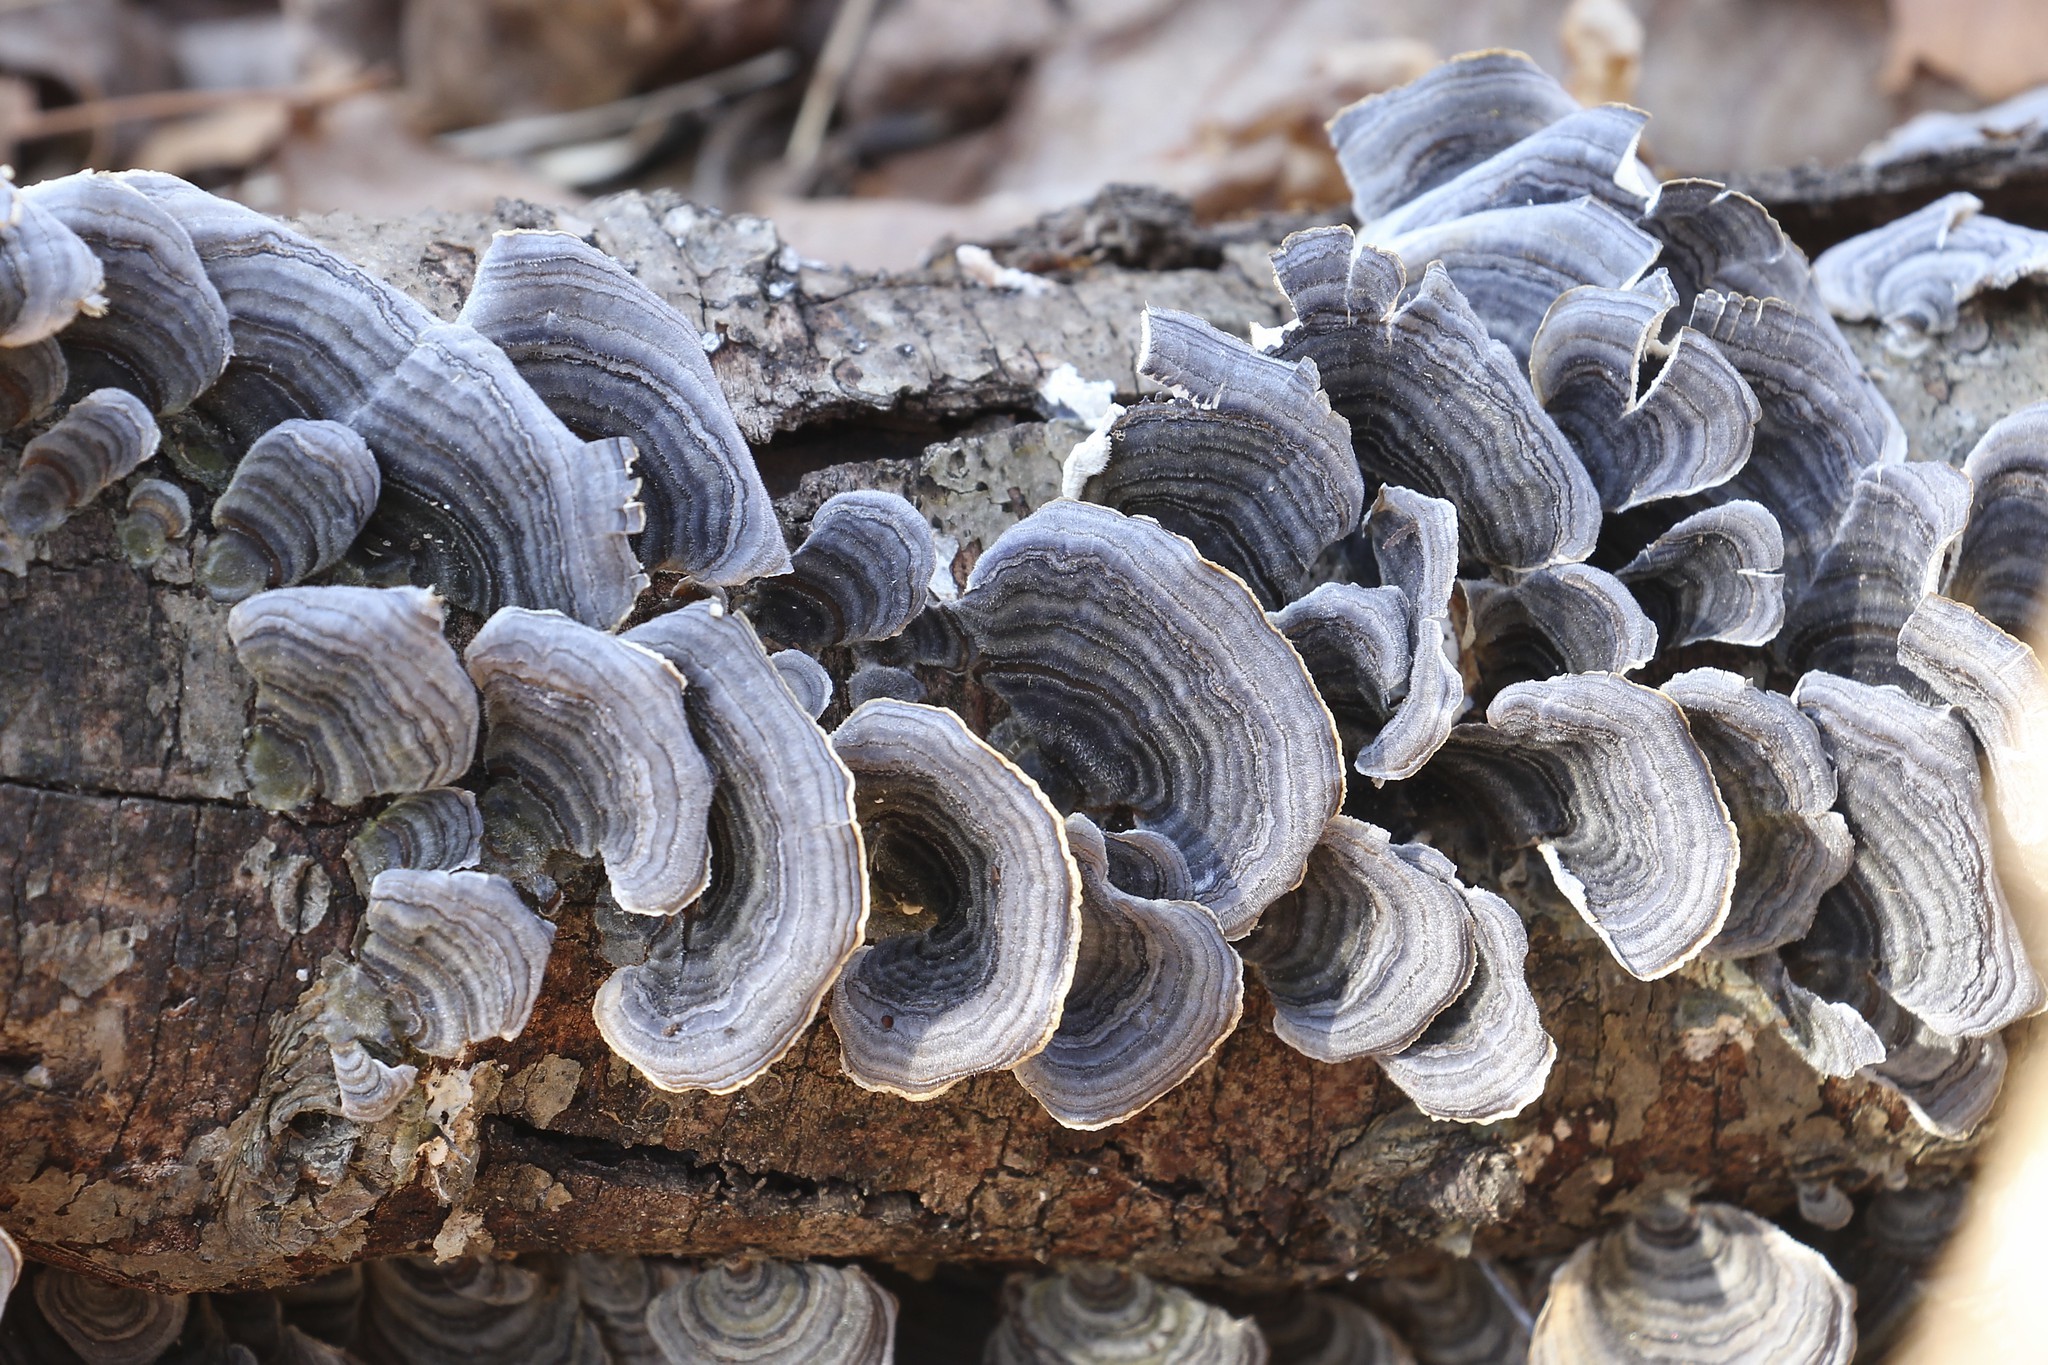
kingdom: Fungi
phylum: Basidiomycota
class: Agaricomycetes
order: Polyporales
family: Polyporaceae
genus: Trametes
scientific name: Trametes versicolor
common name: Turkeytail
